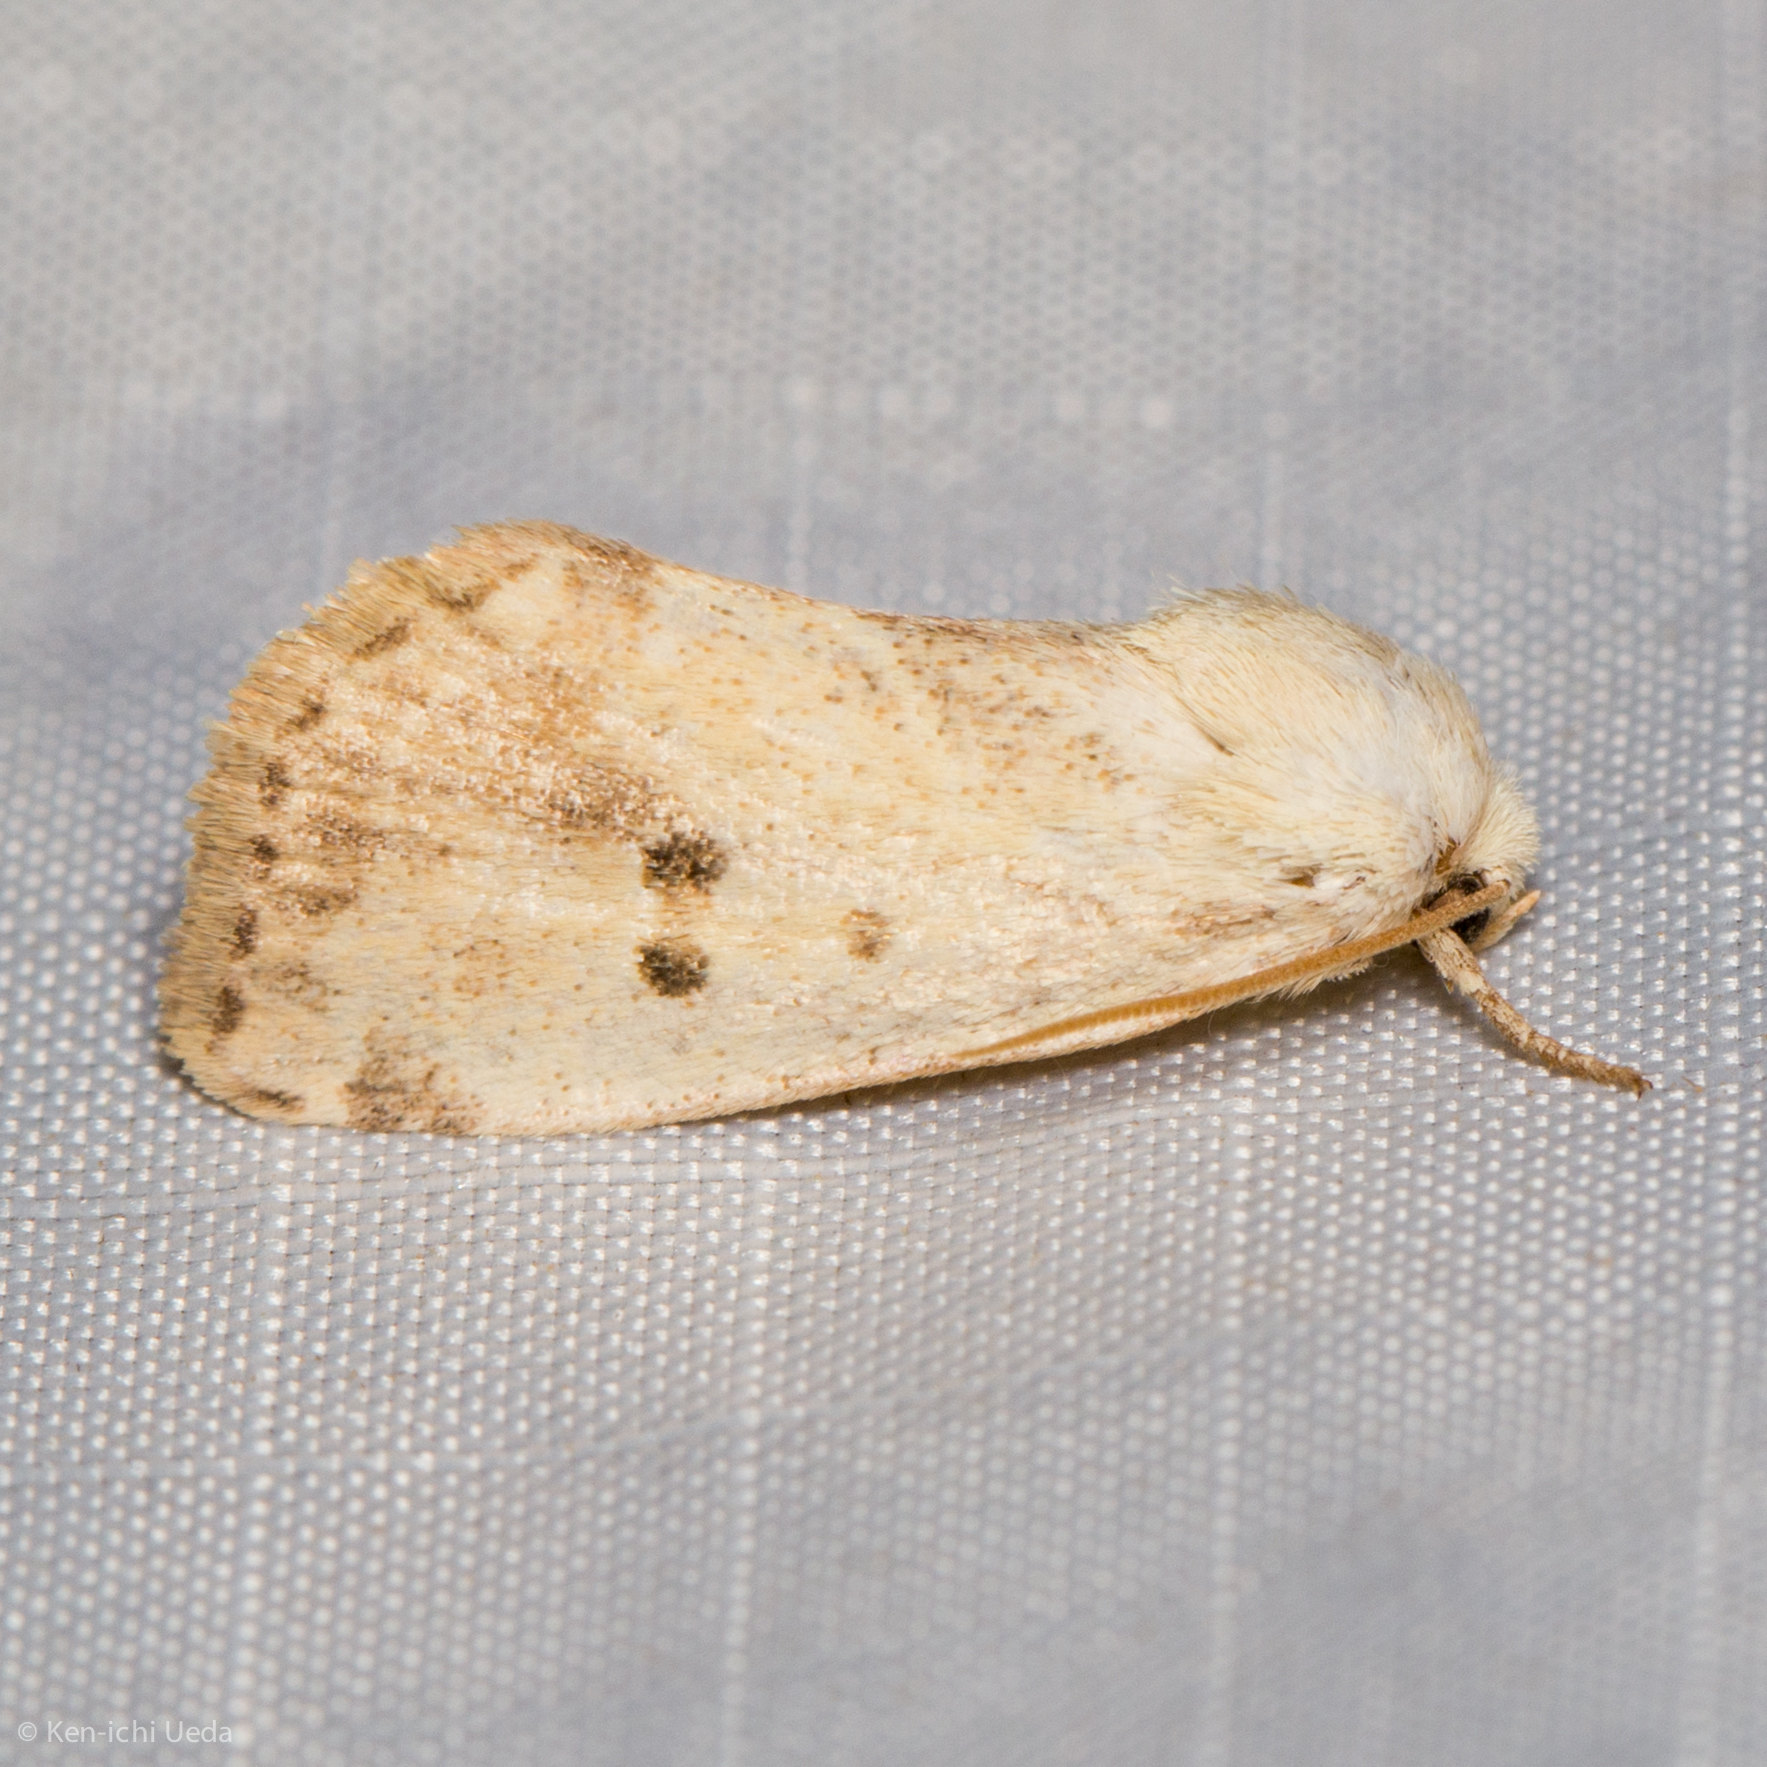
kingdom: Animalia
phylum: Arthropoda
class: Insecta
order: Lepidoptera
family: Noctuidae
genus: Cosmia
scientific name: Cosmia calami
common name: American dun-bar moth
